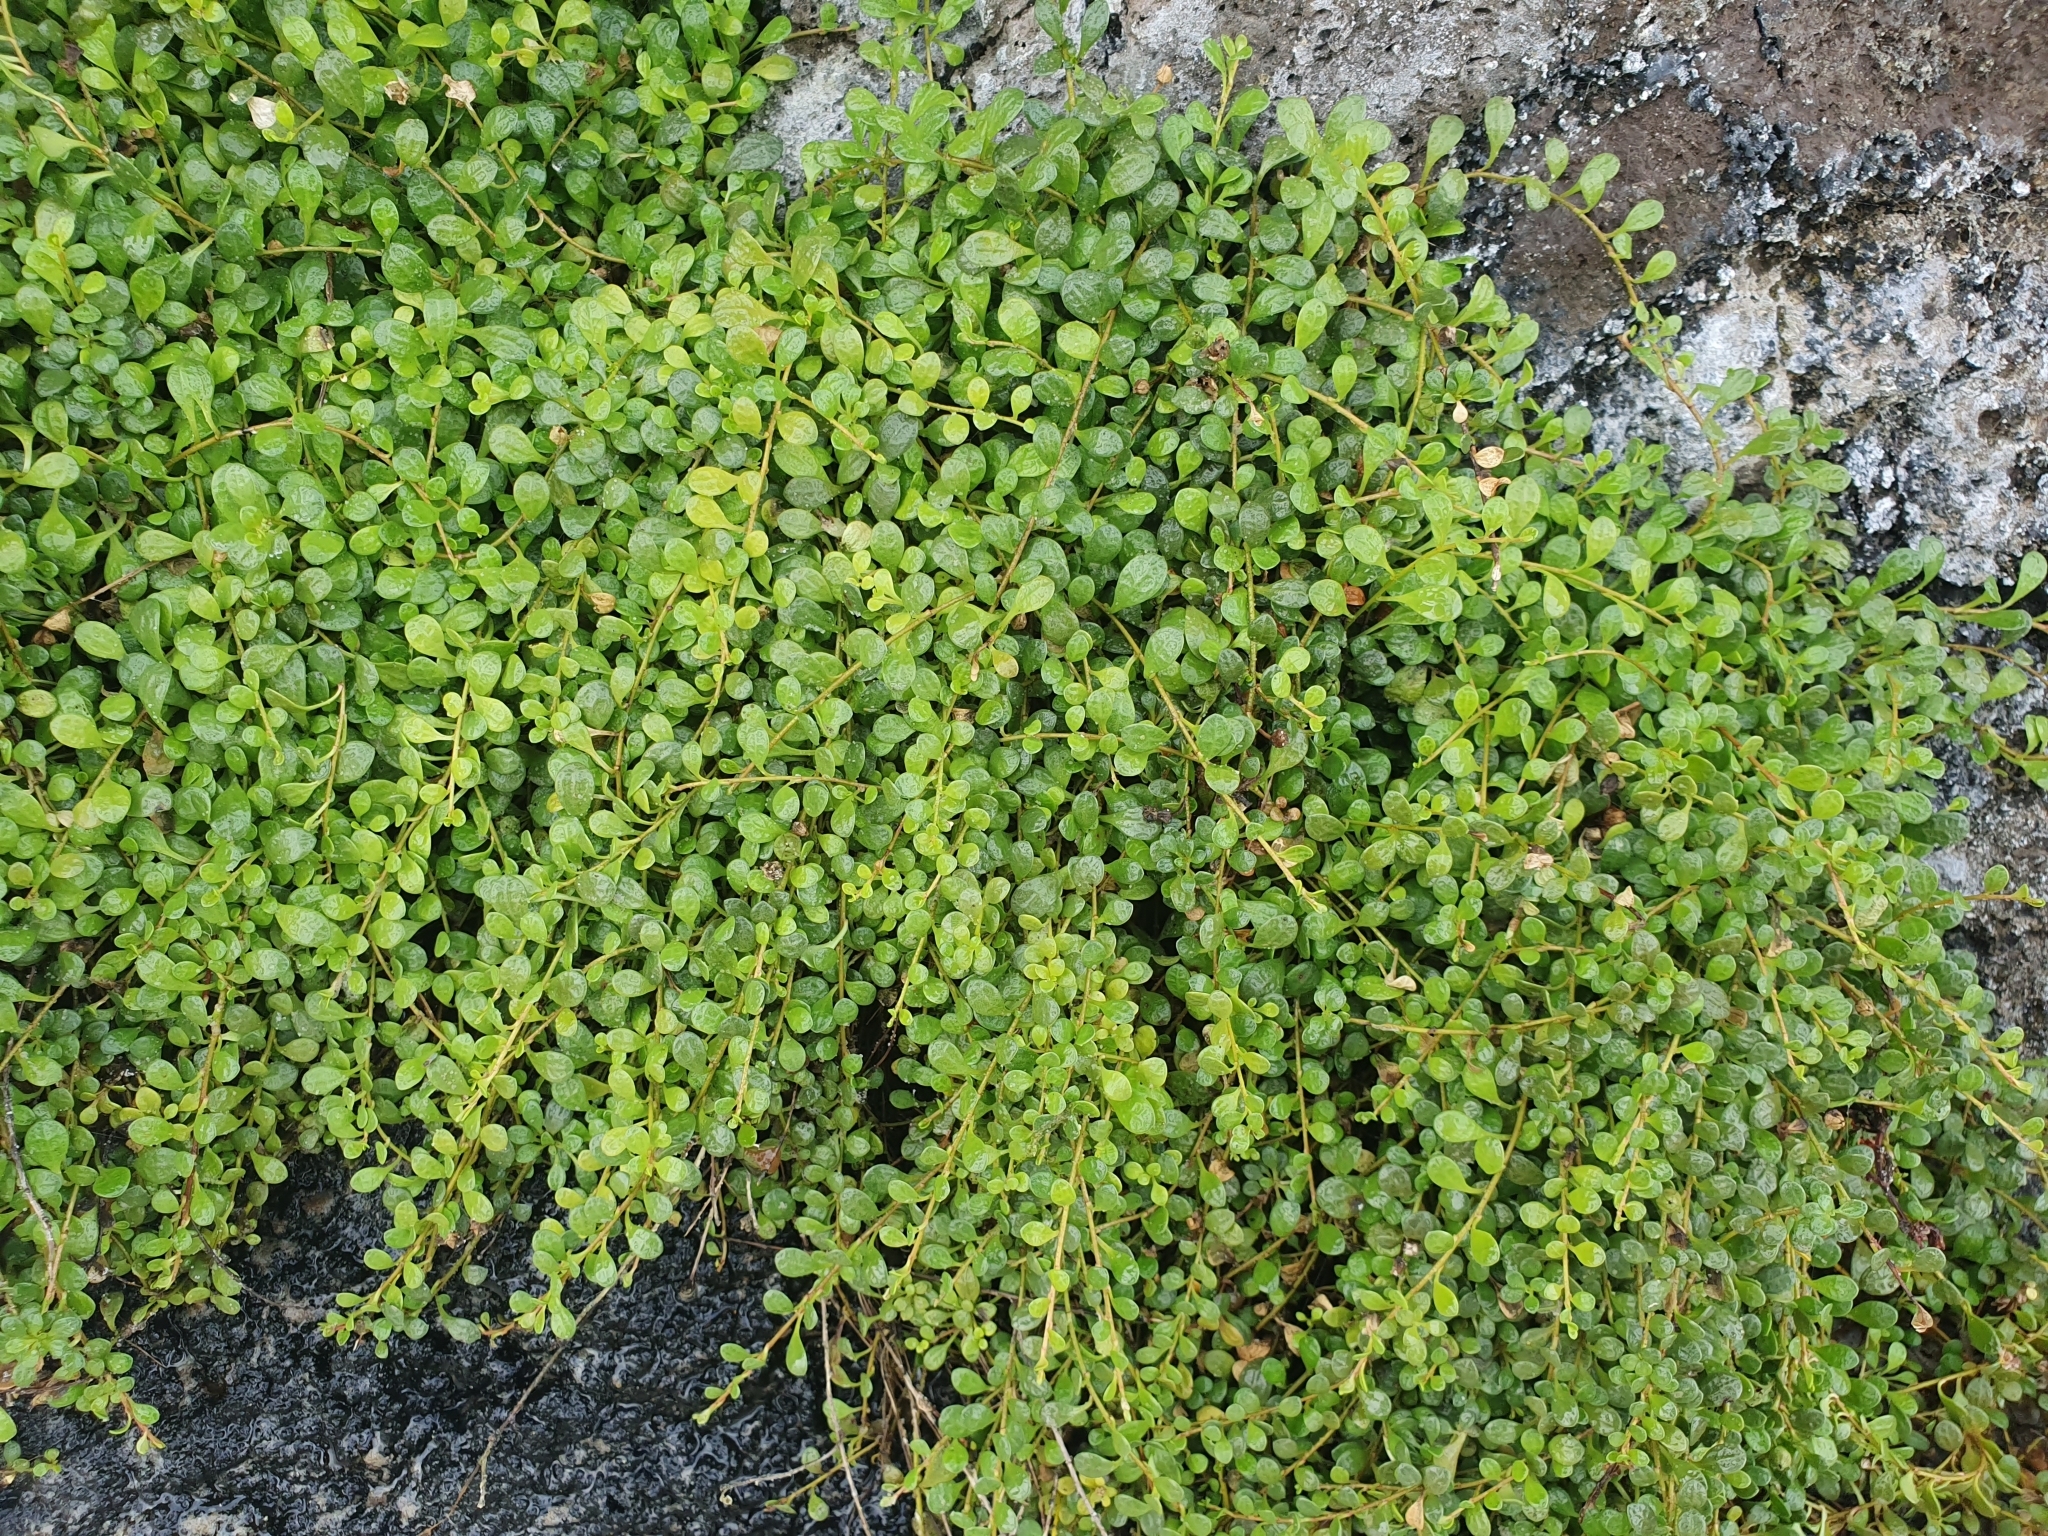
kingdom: Plantae
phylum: Tracheophyta
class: Magnoliopsida
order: Ericales
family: Primulaceae
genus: Samolus
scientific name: Samolus repens
